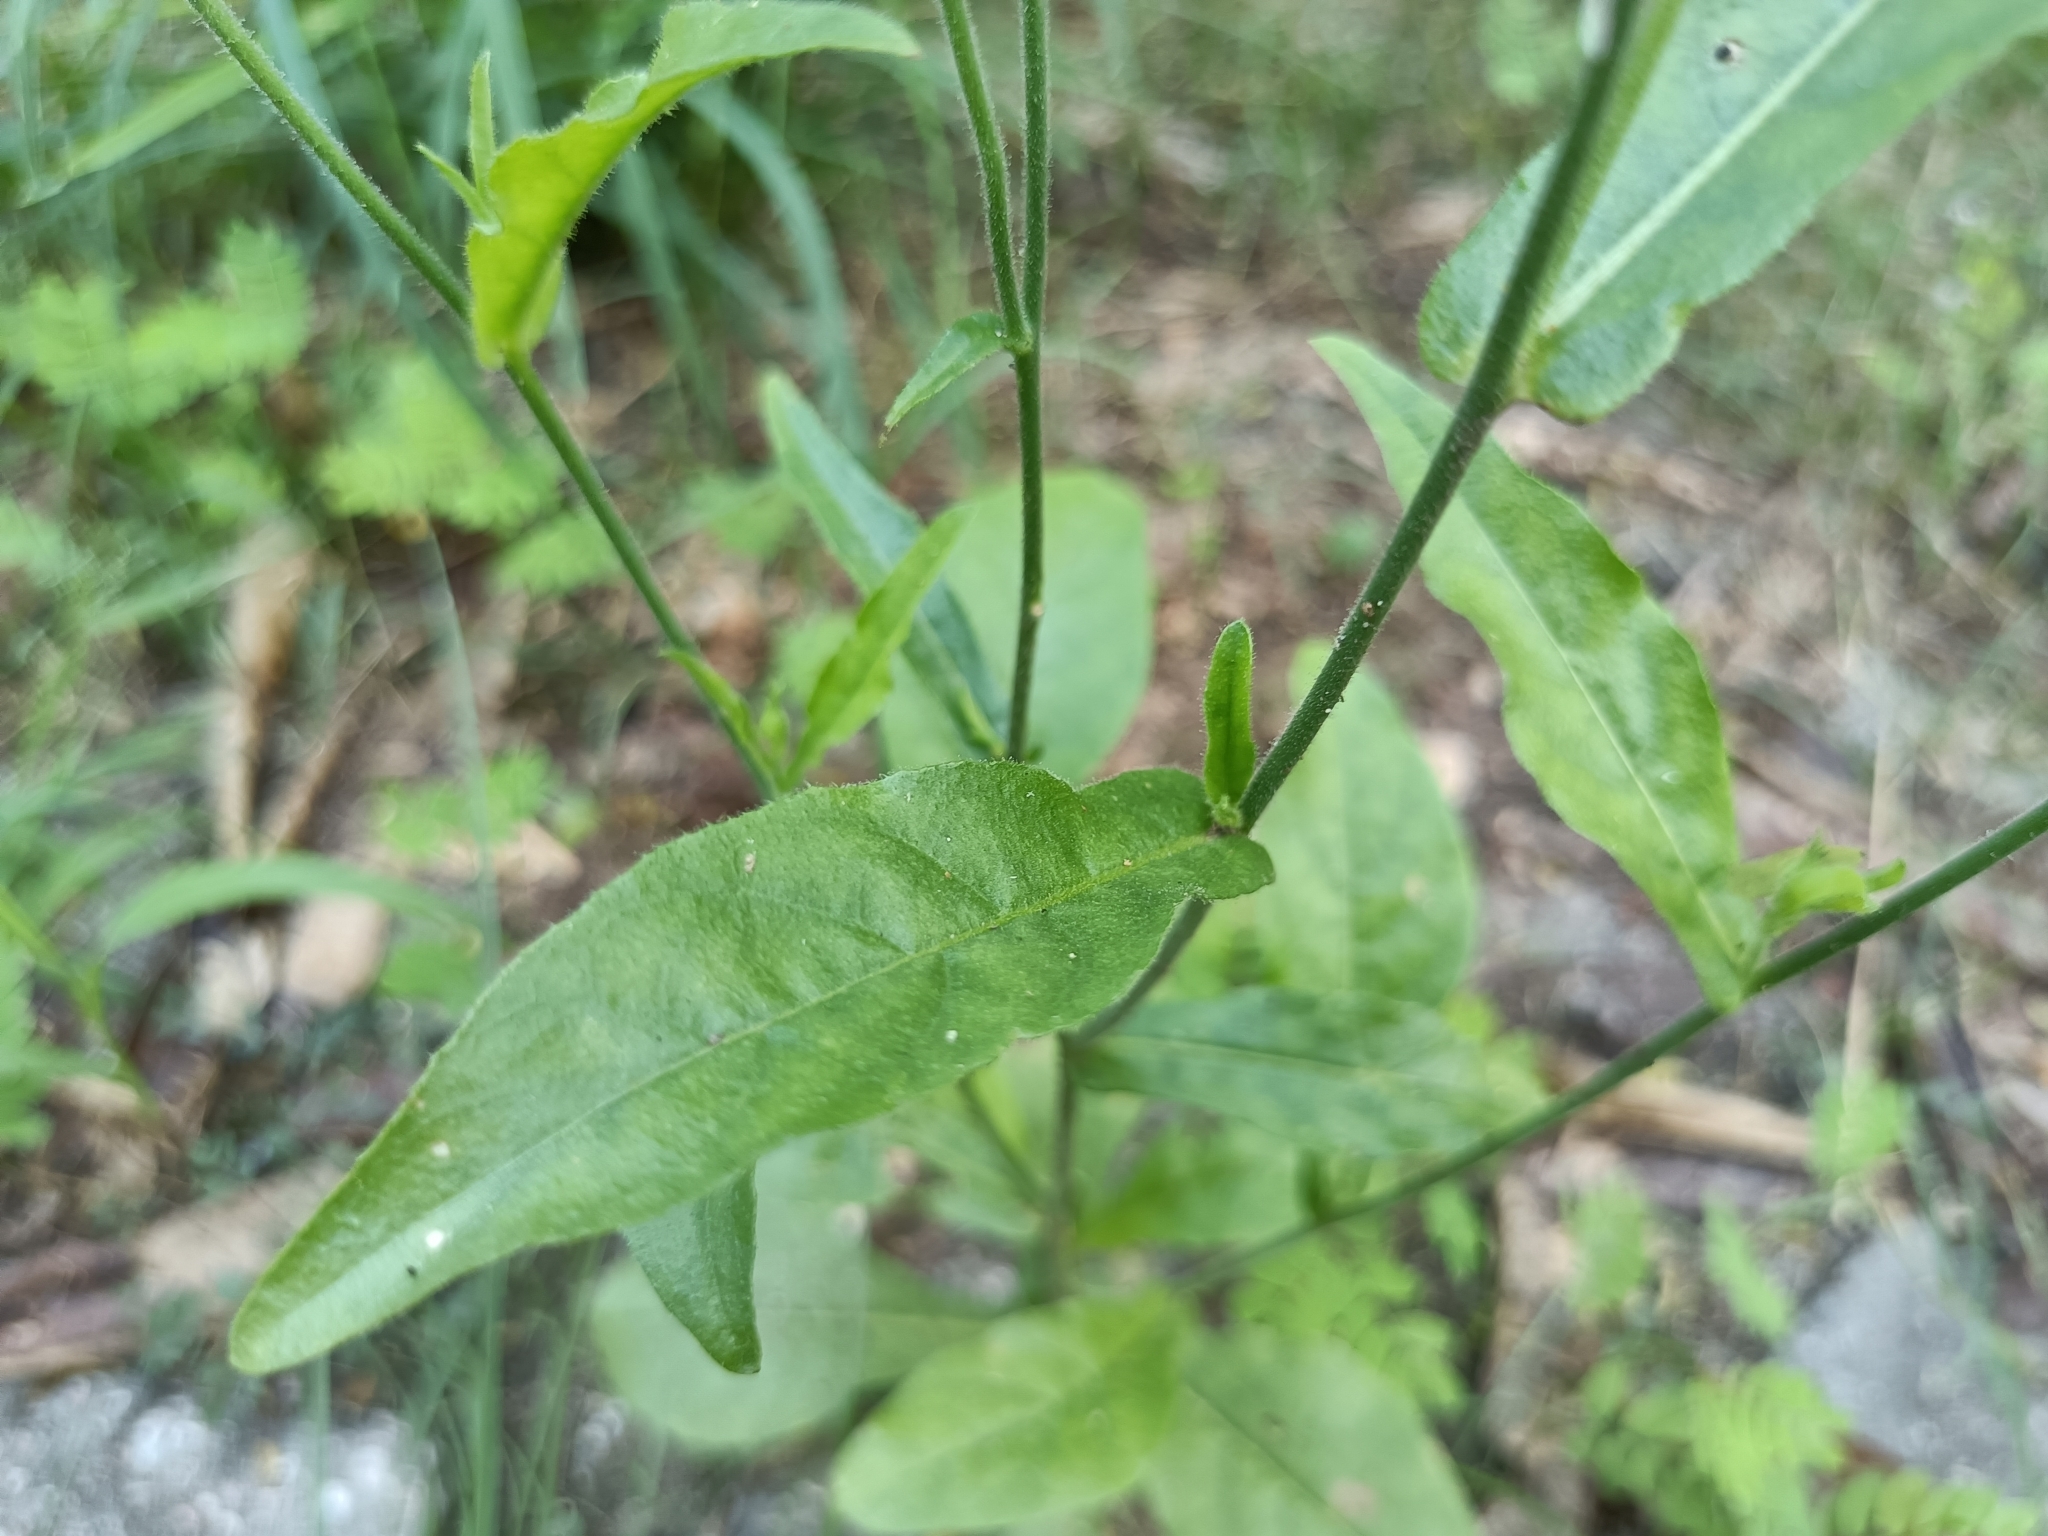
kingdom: Plantae
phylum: Tracheophyta
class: Magnoliopsida
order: Solanales
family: Solanaceae
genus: Nicotiana
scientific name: Nicotiana plumbaginifolia
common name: Tex-mex tobacco
